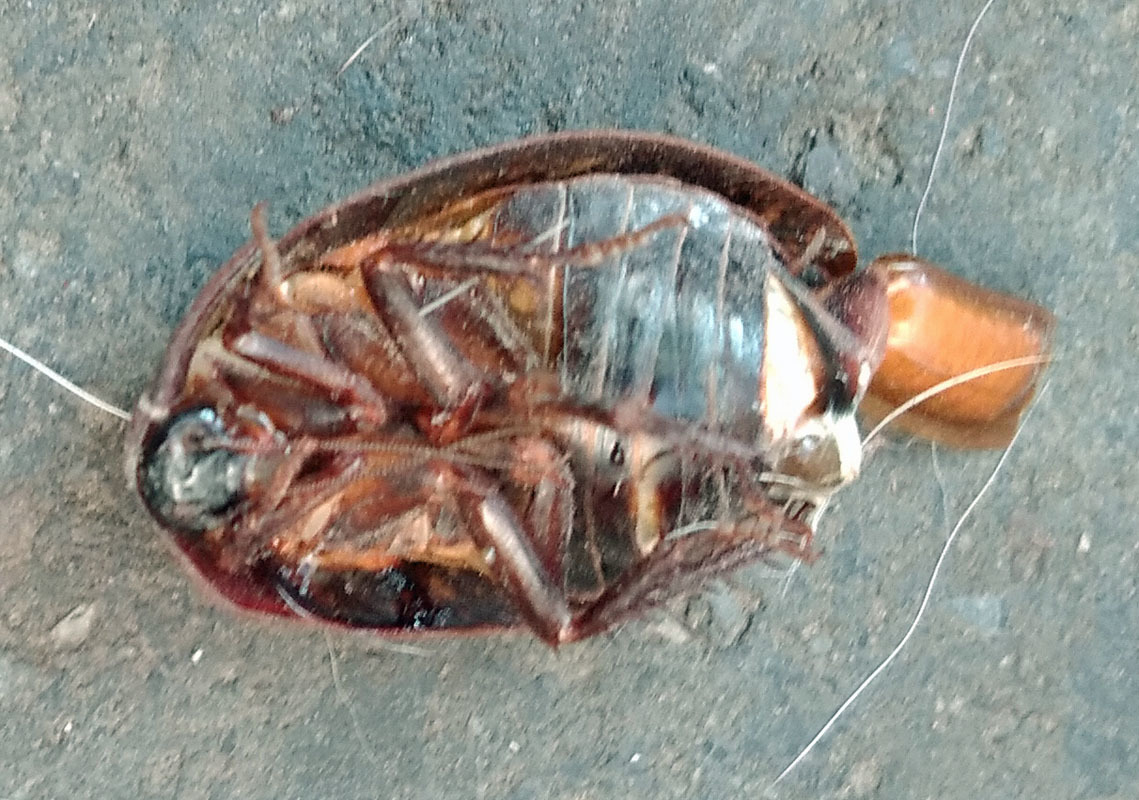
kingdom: Animalia
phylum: Arthropoda
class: Insecta
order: Blattodea
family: Corydiidae
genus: Homoeogamia
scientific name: Homoeogamia mexicana
